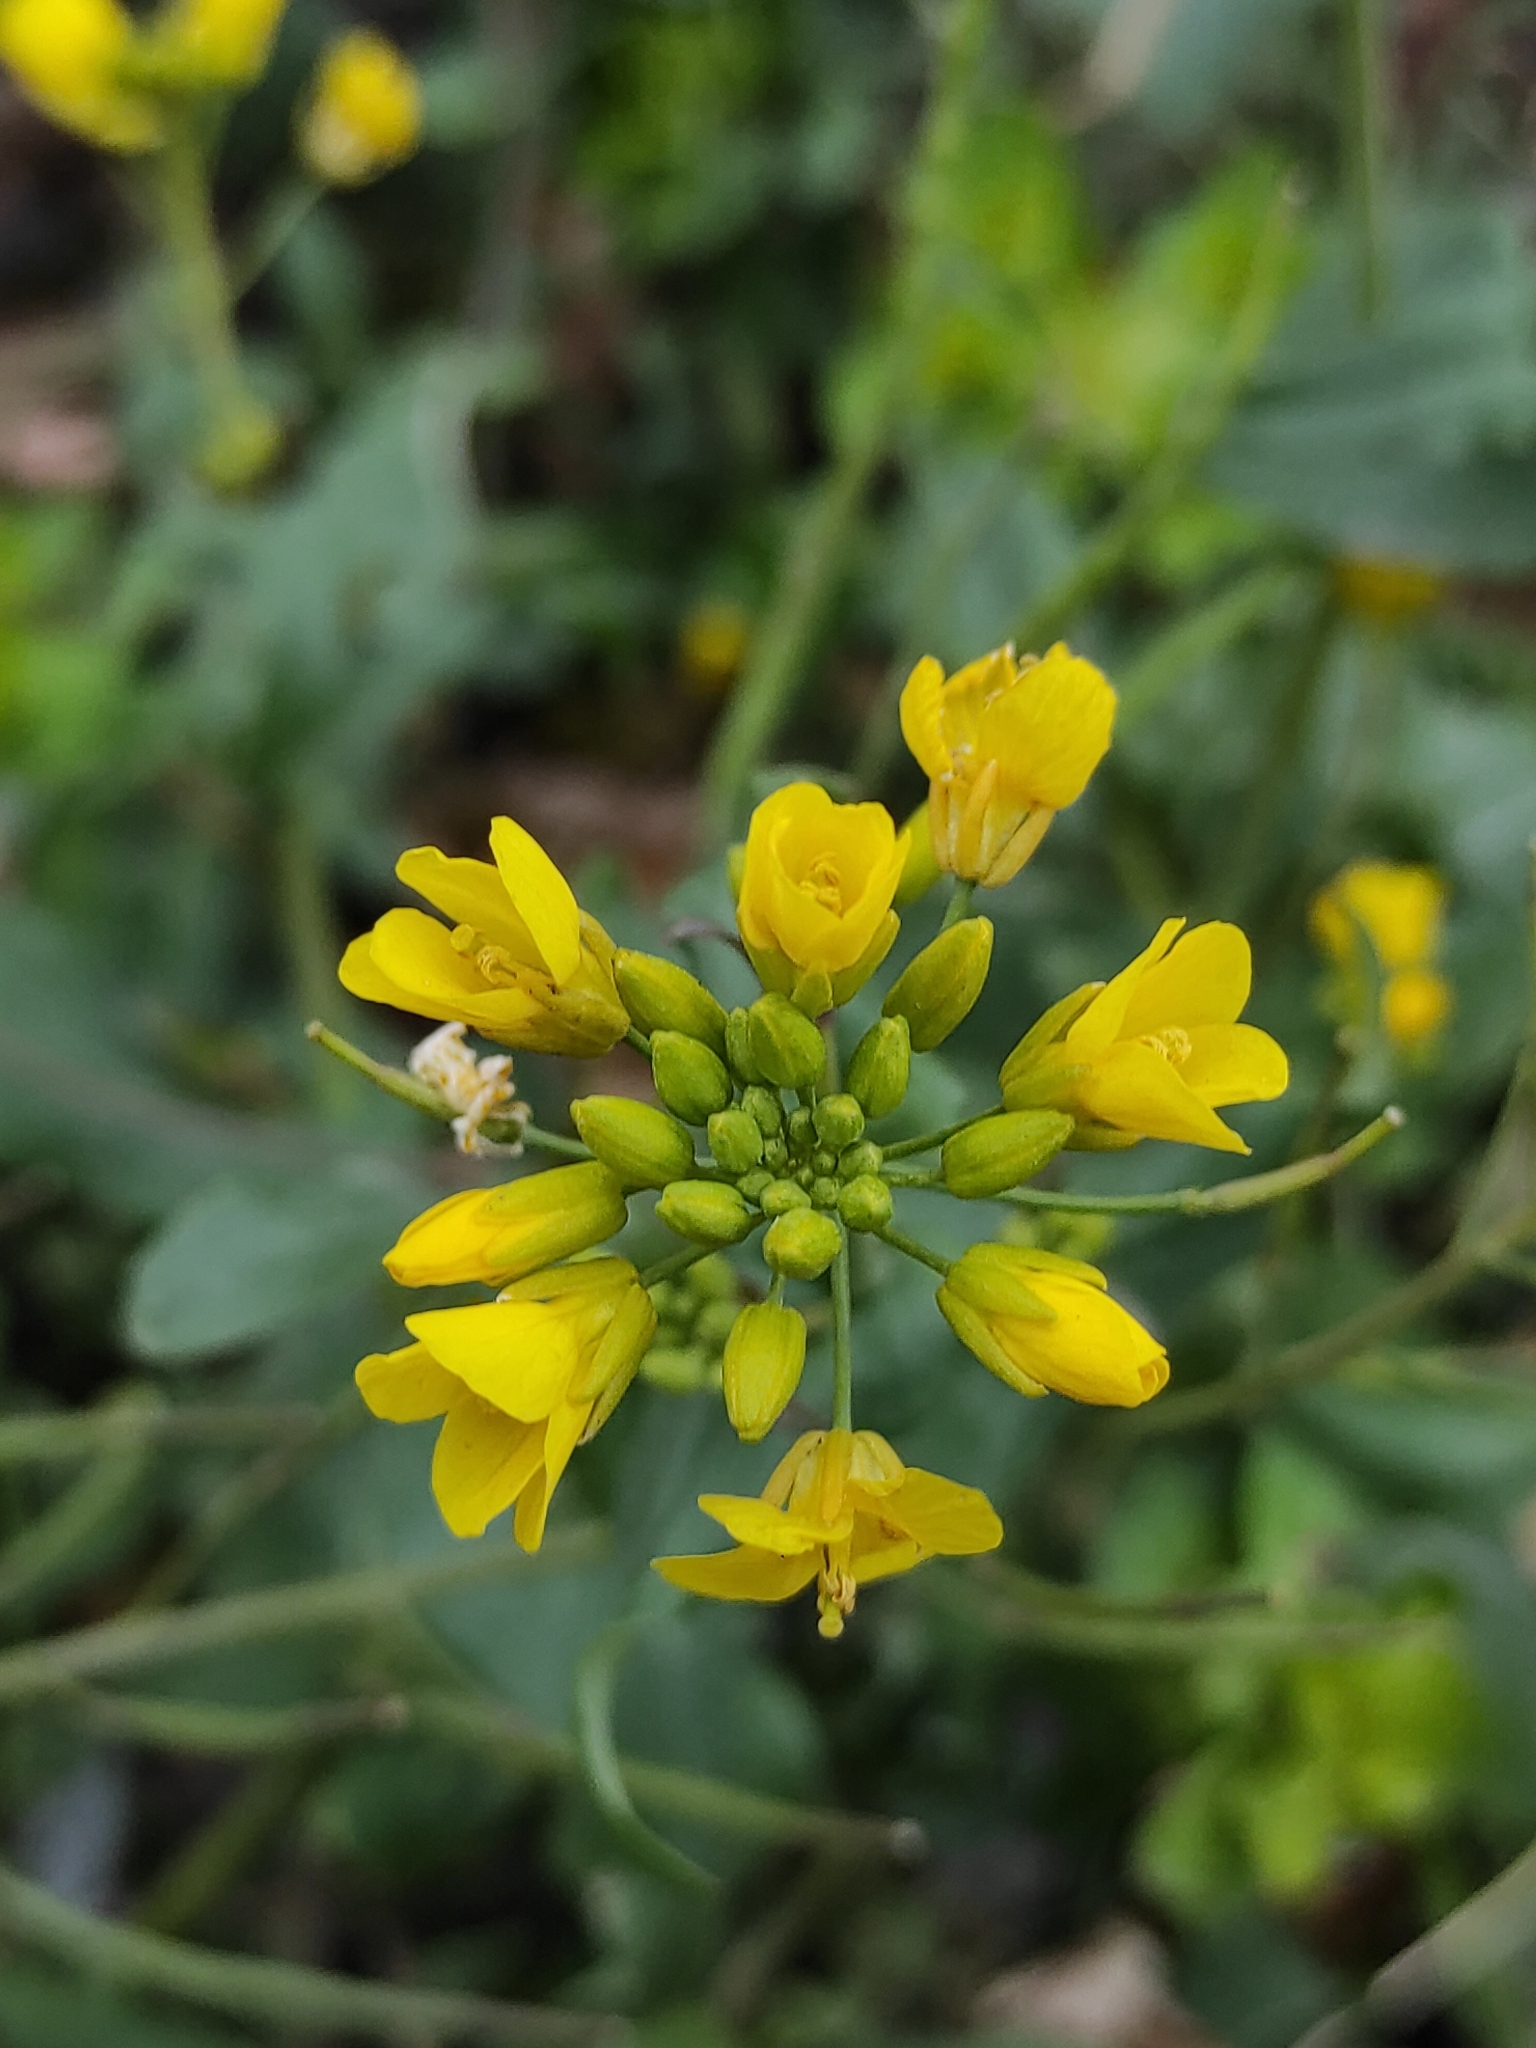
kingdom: Plantae
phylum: Tracheophyta
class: Magnoliopsida
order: Brassicales
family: Brassicaceae
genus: Brassica
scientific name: Brassica rapa
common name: Field mustard
